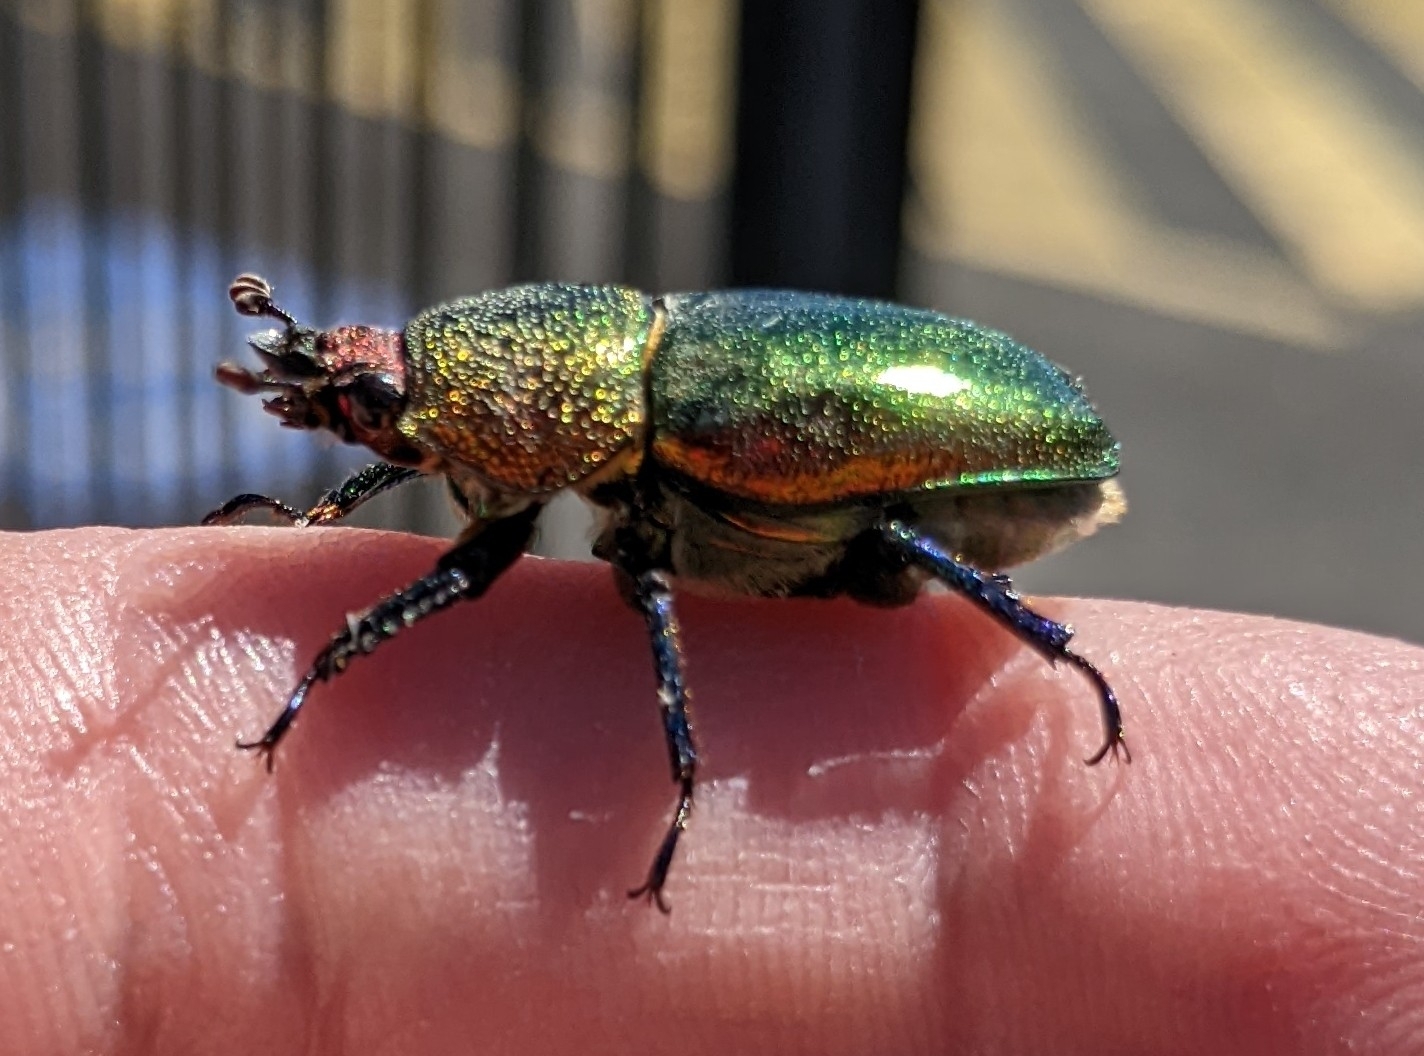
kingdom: Animalia
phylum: Arthropoda
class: Insecta
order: Coleoptera
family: Lucanidae
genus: Lamprima
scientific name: Lamprima aurata
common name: Golden stag beetle
